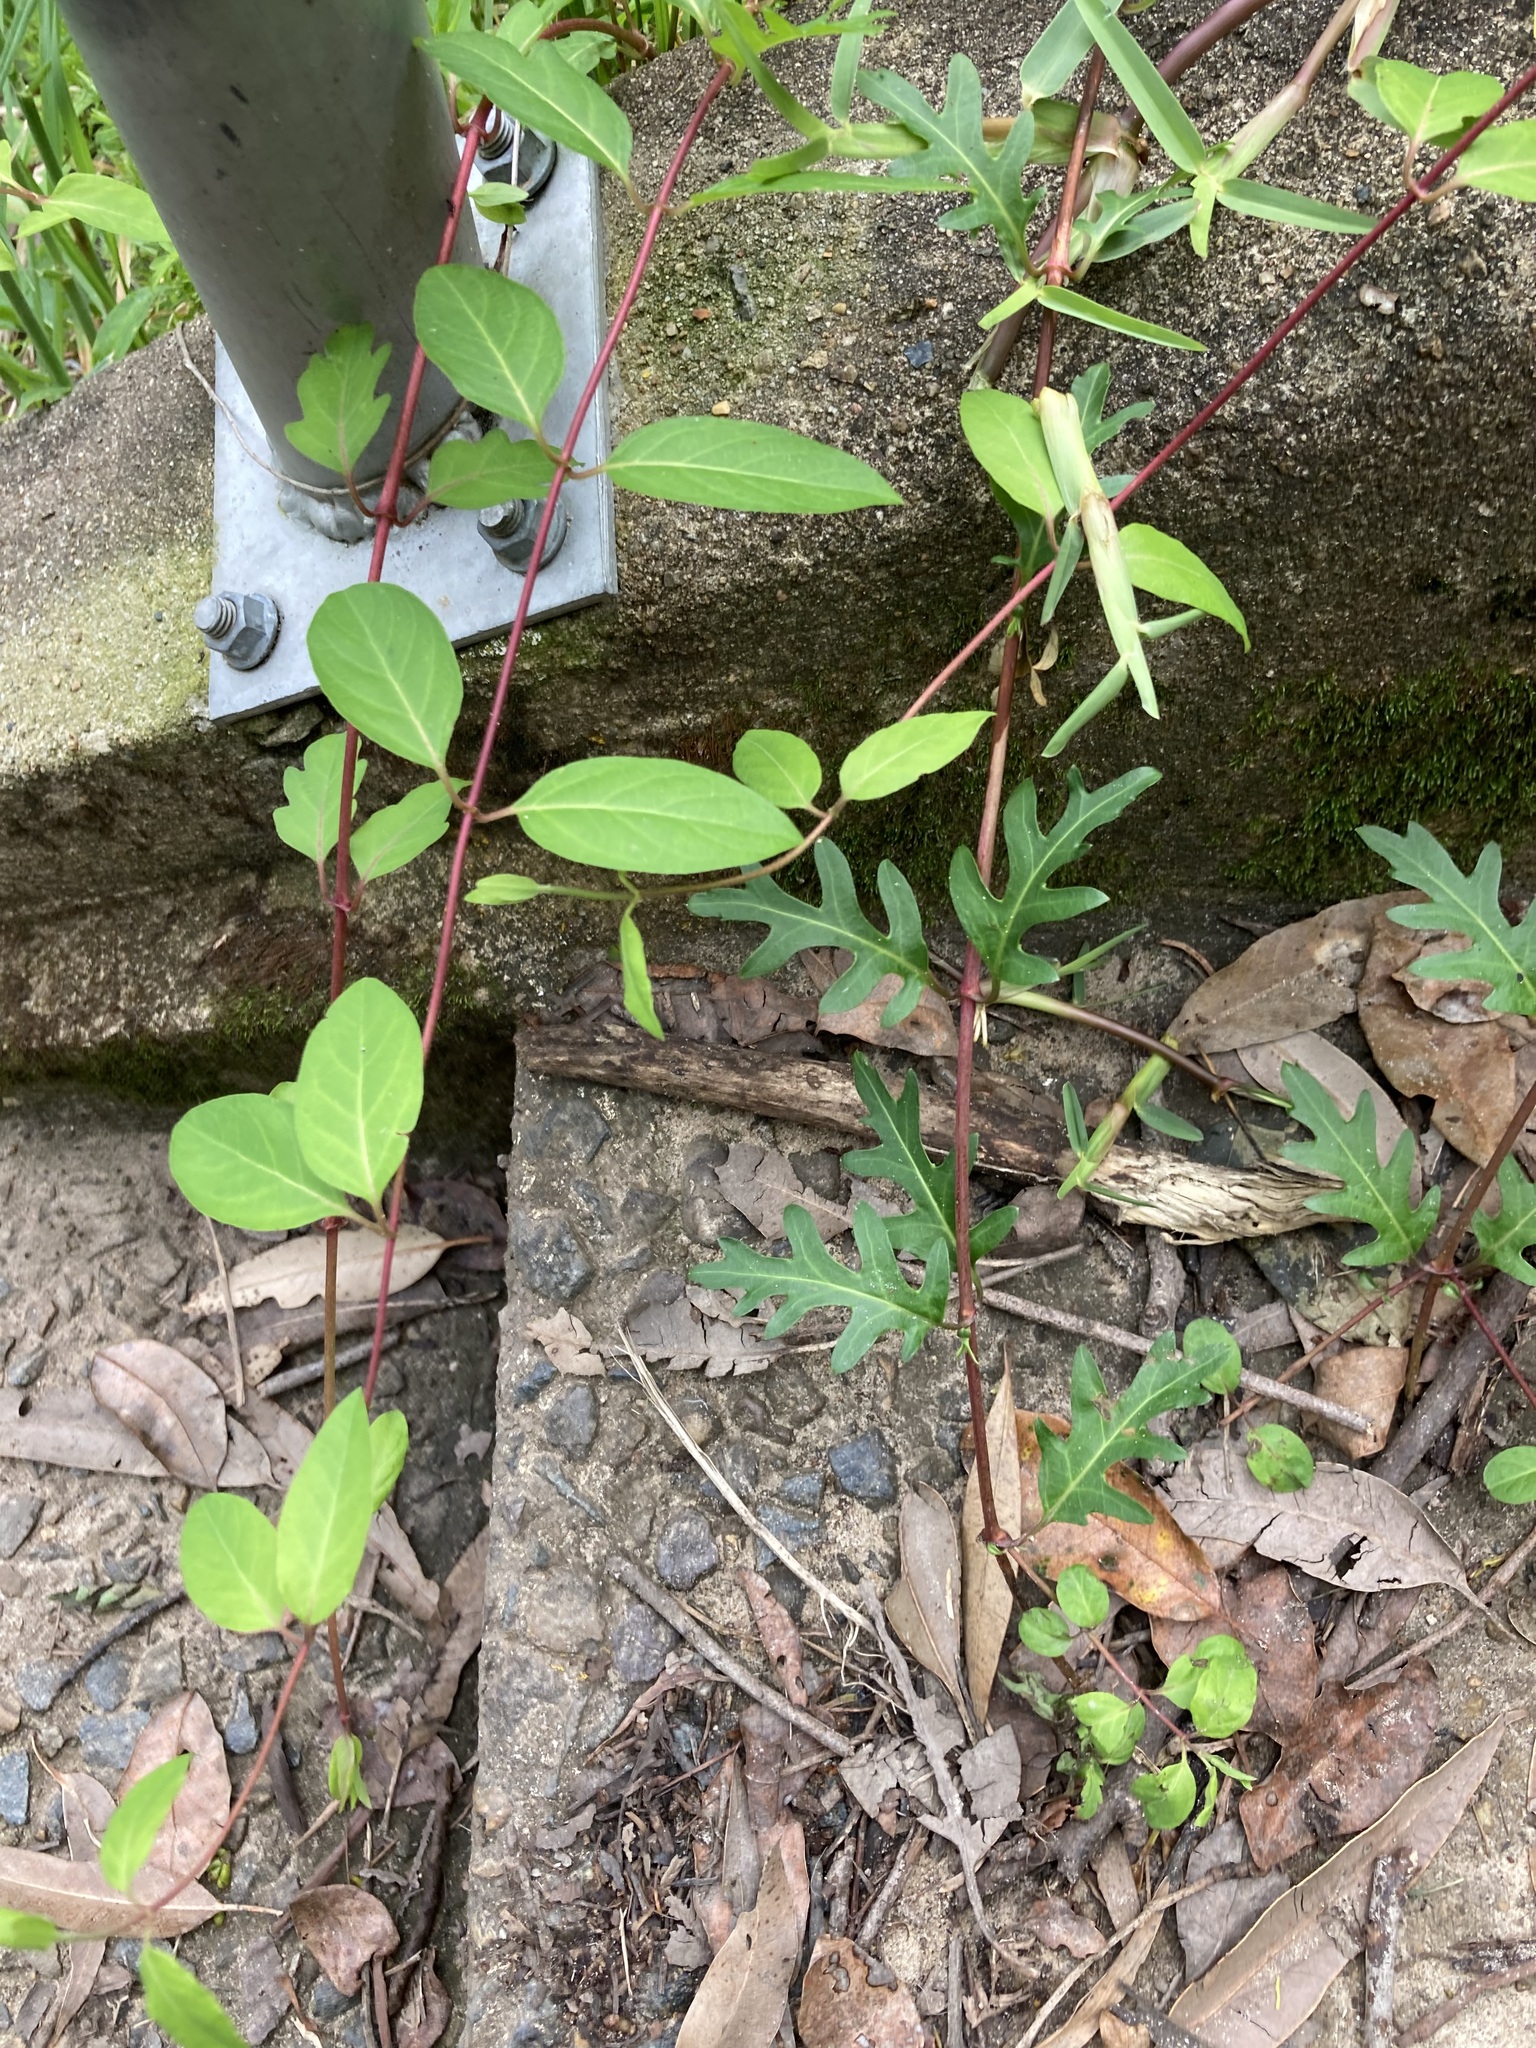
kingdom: Plantae
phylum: Tracheophyta
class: Magnoliopsida
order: Dipsacales
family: Caprifoliaceae
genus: Lonicera
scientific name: Lonicera japonica
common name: Japanese honeysuckle
